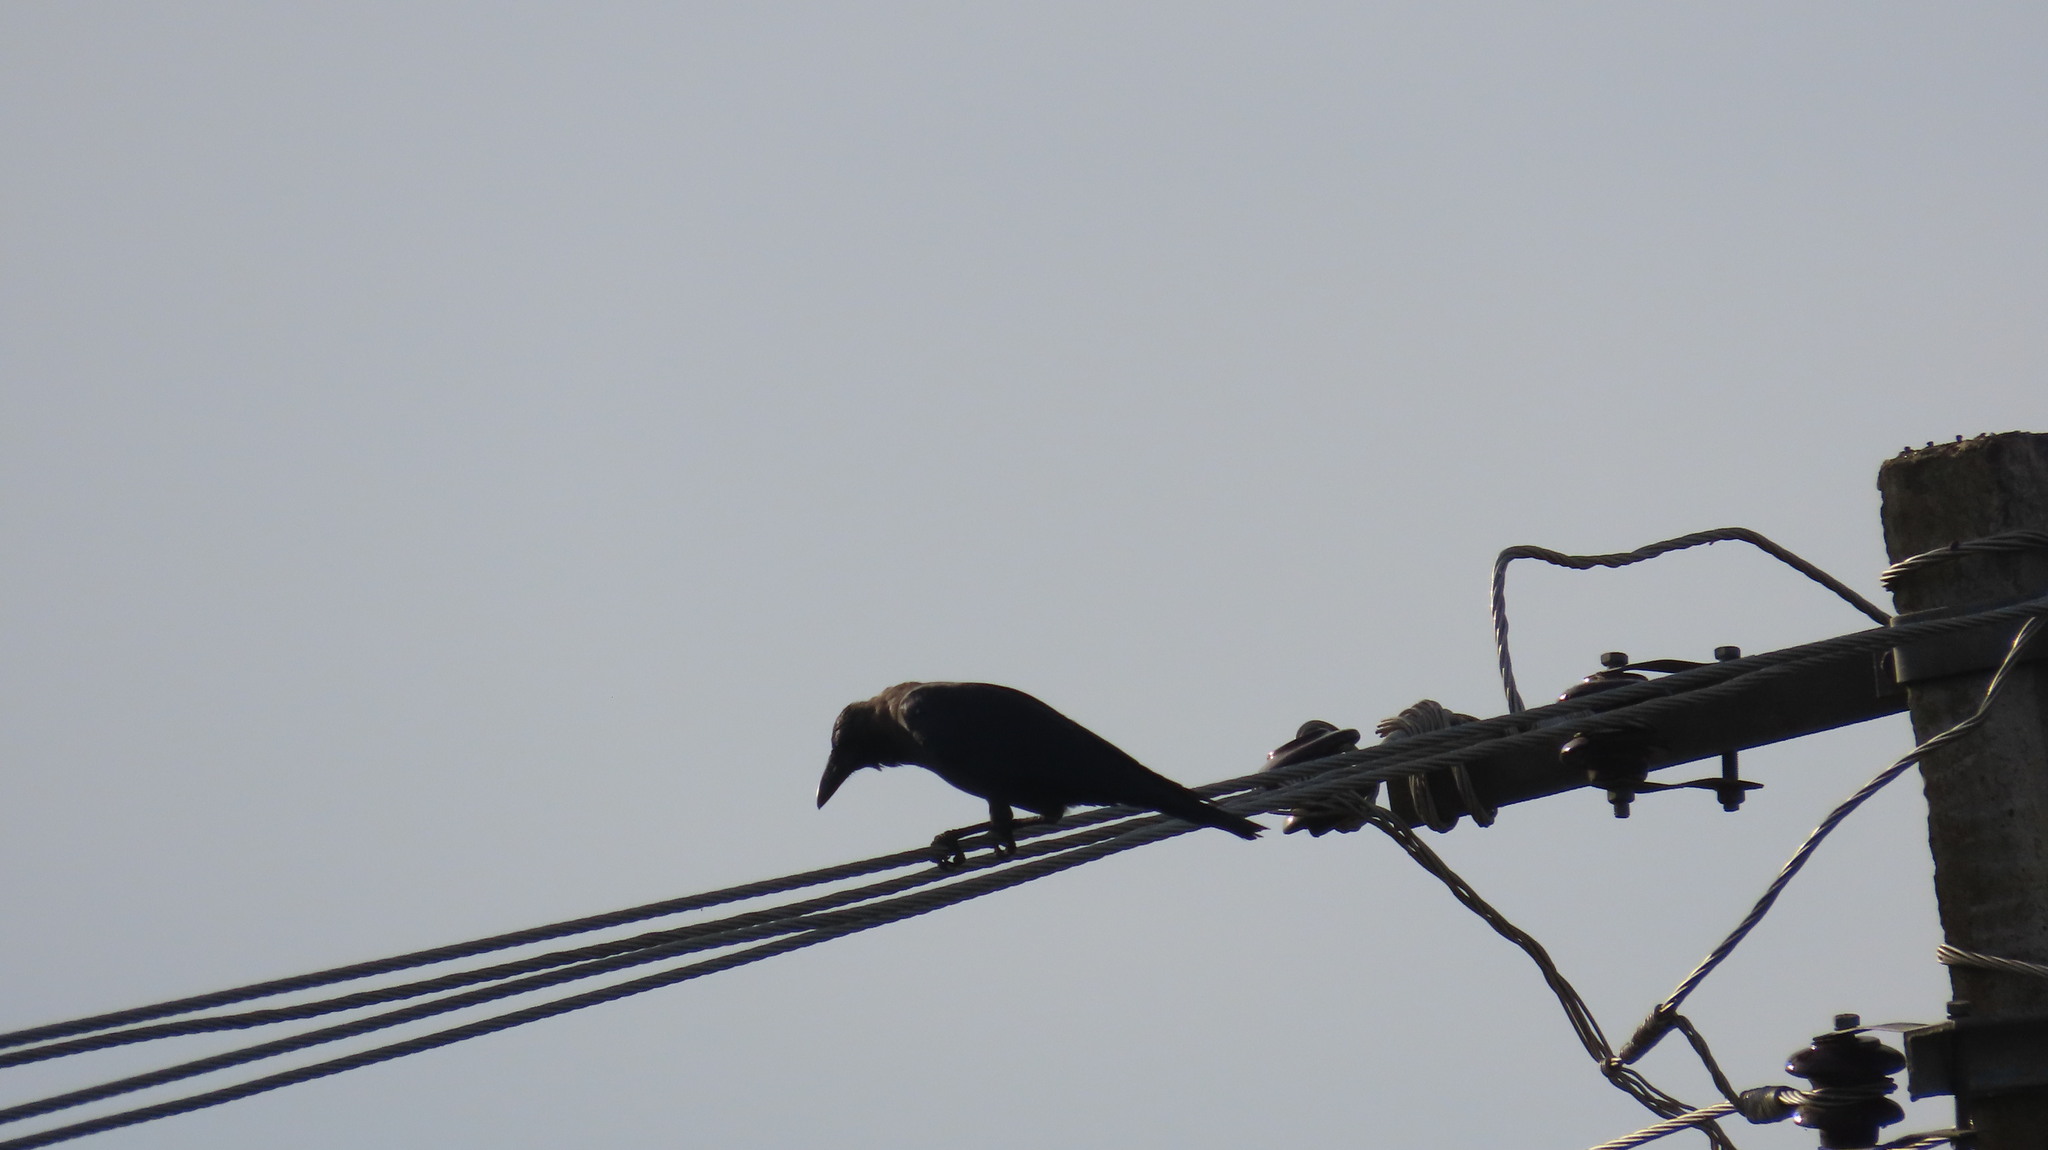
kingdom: Animalia
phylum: Chordata
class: Aves
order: Passeriformes
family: Corvidae
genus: Corvus
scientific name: Corvus splendens
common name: House crow
